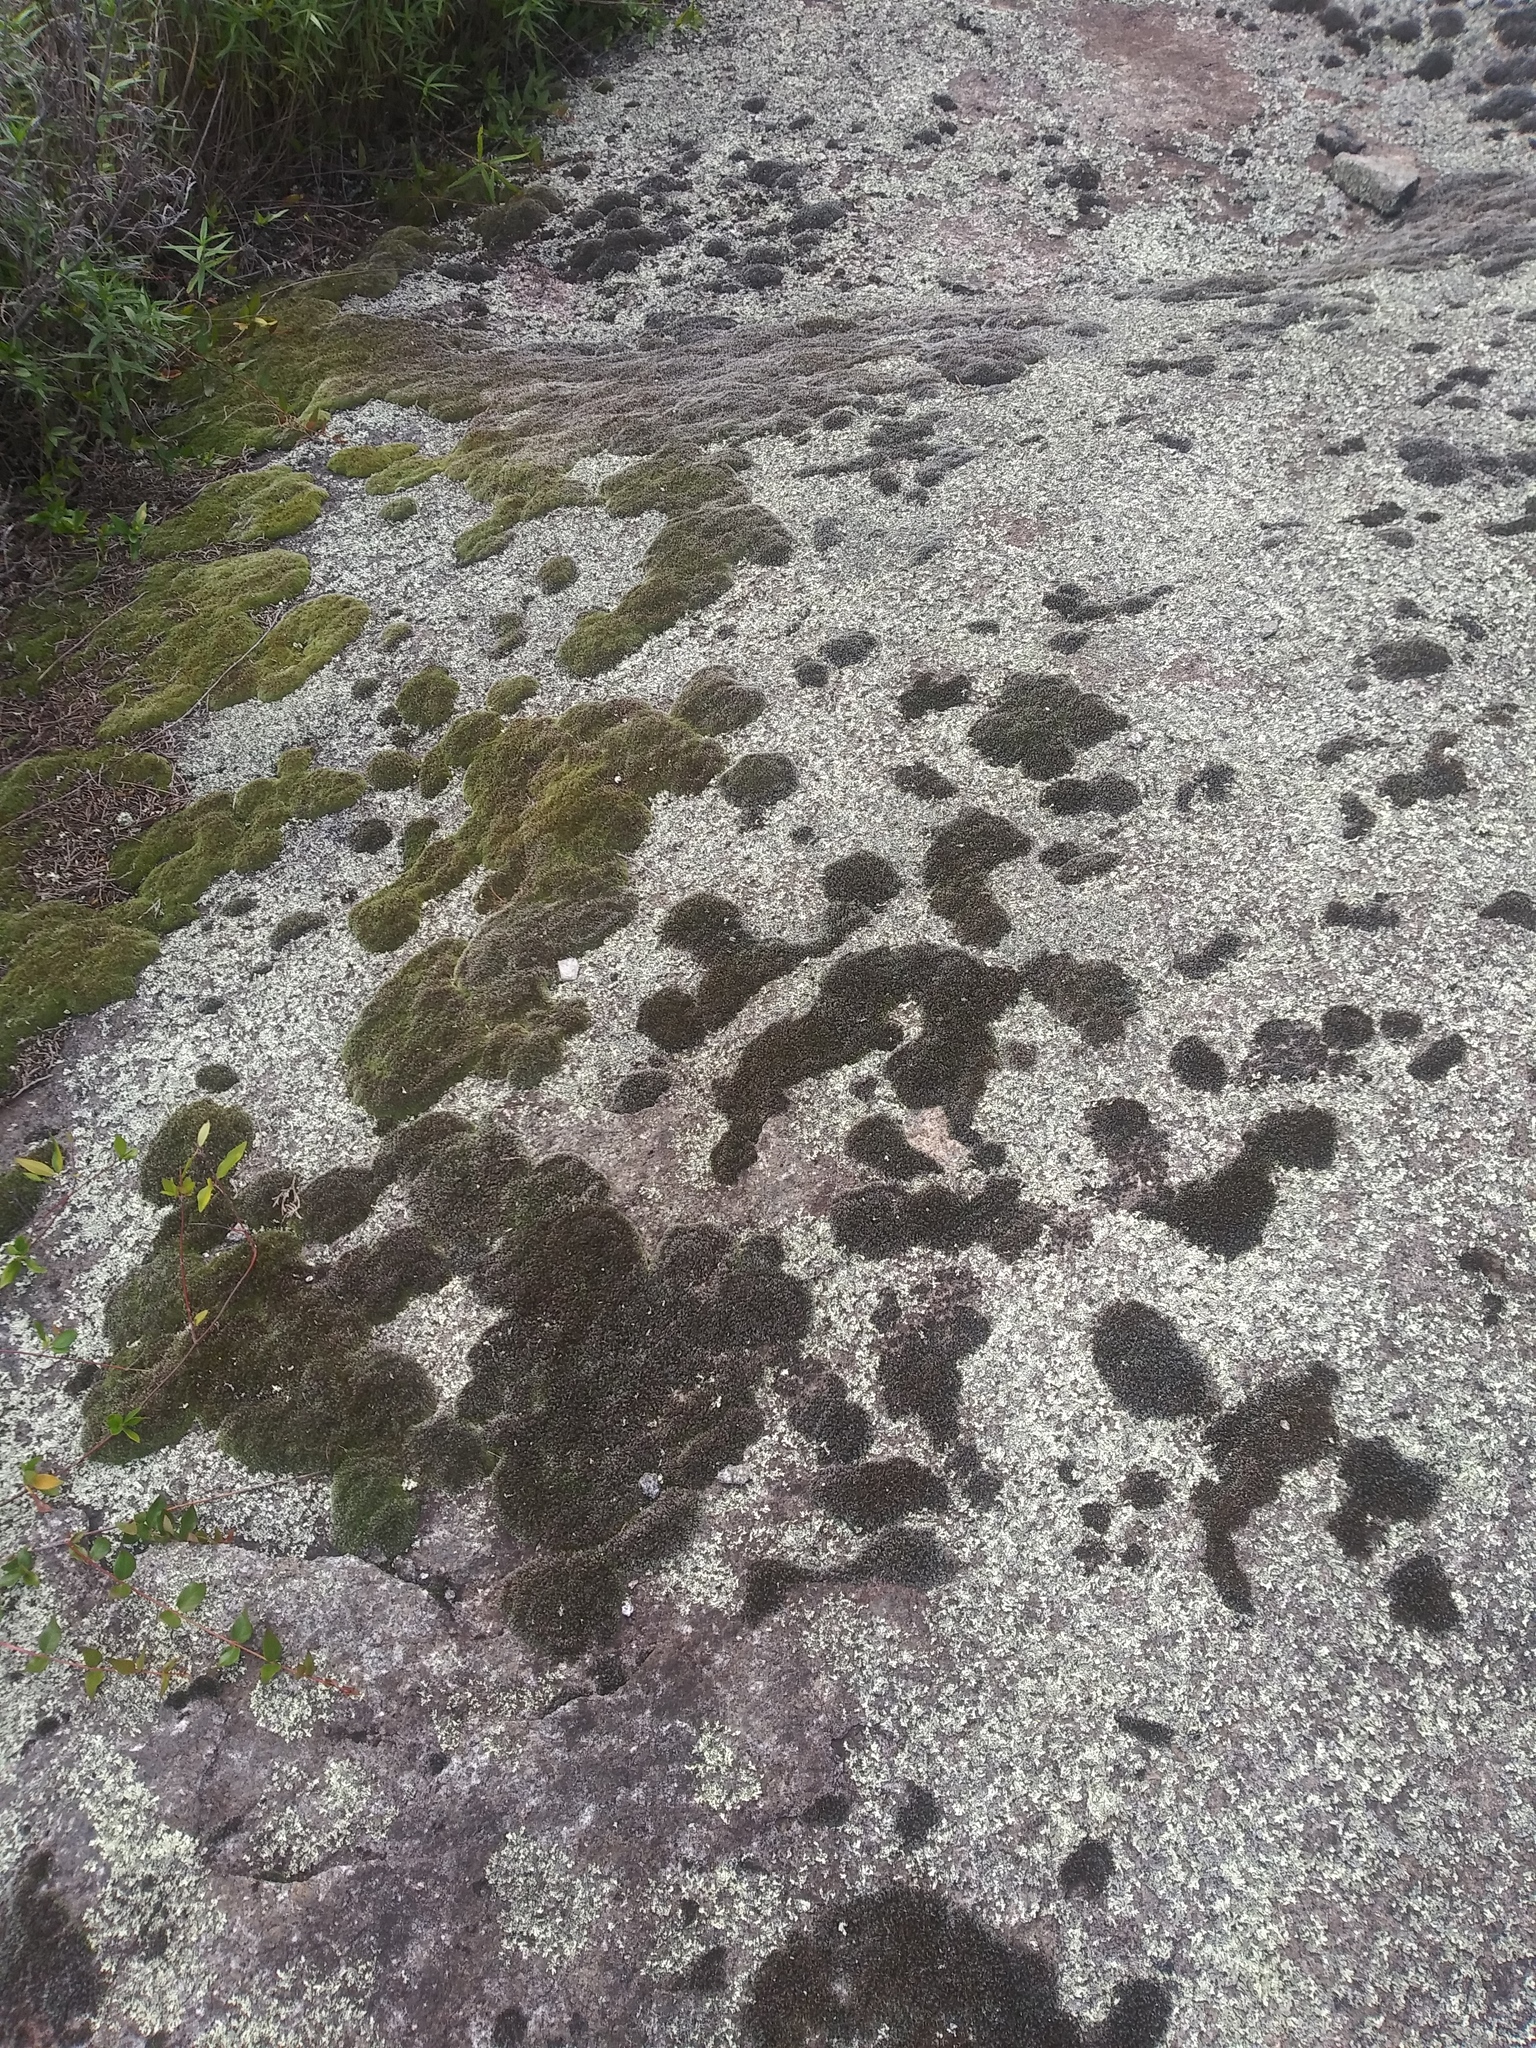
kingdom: Plantae
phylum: Bryophyta
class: Bryopsida
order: Grimmiales
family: Grimmiaceae
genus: Grimmia
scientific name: Grimmia laevigata
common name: Hoary grimmia
